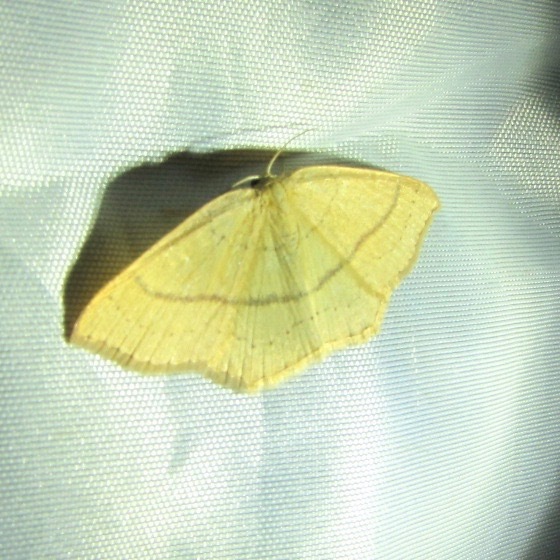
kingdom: Animalia
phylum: Arthropoda
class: Insecta
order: Lepidoptera
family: Geometridae
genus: Cyclophora
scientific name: Cyclophora linearia
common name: Clay triple-lines
